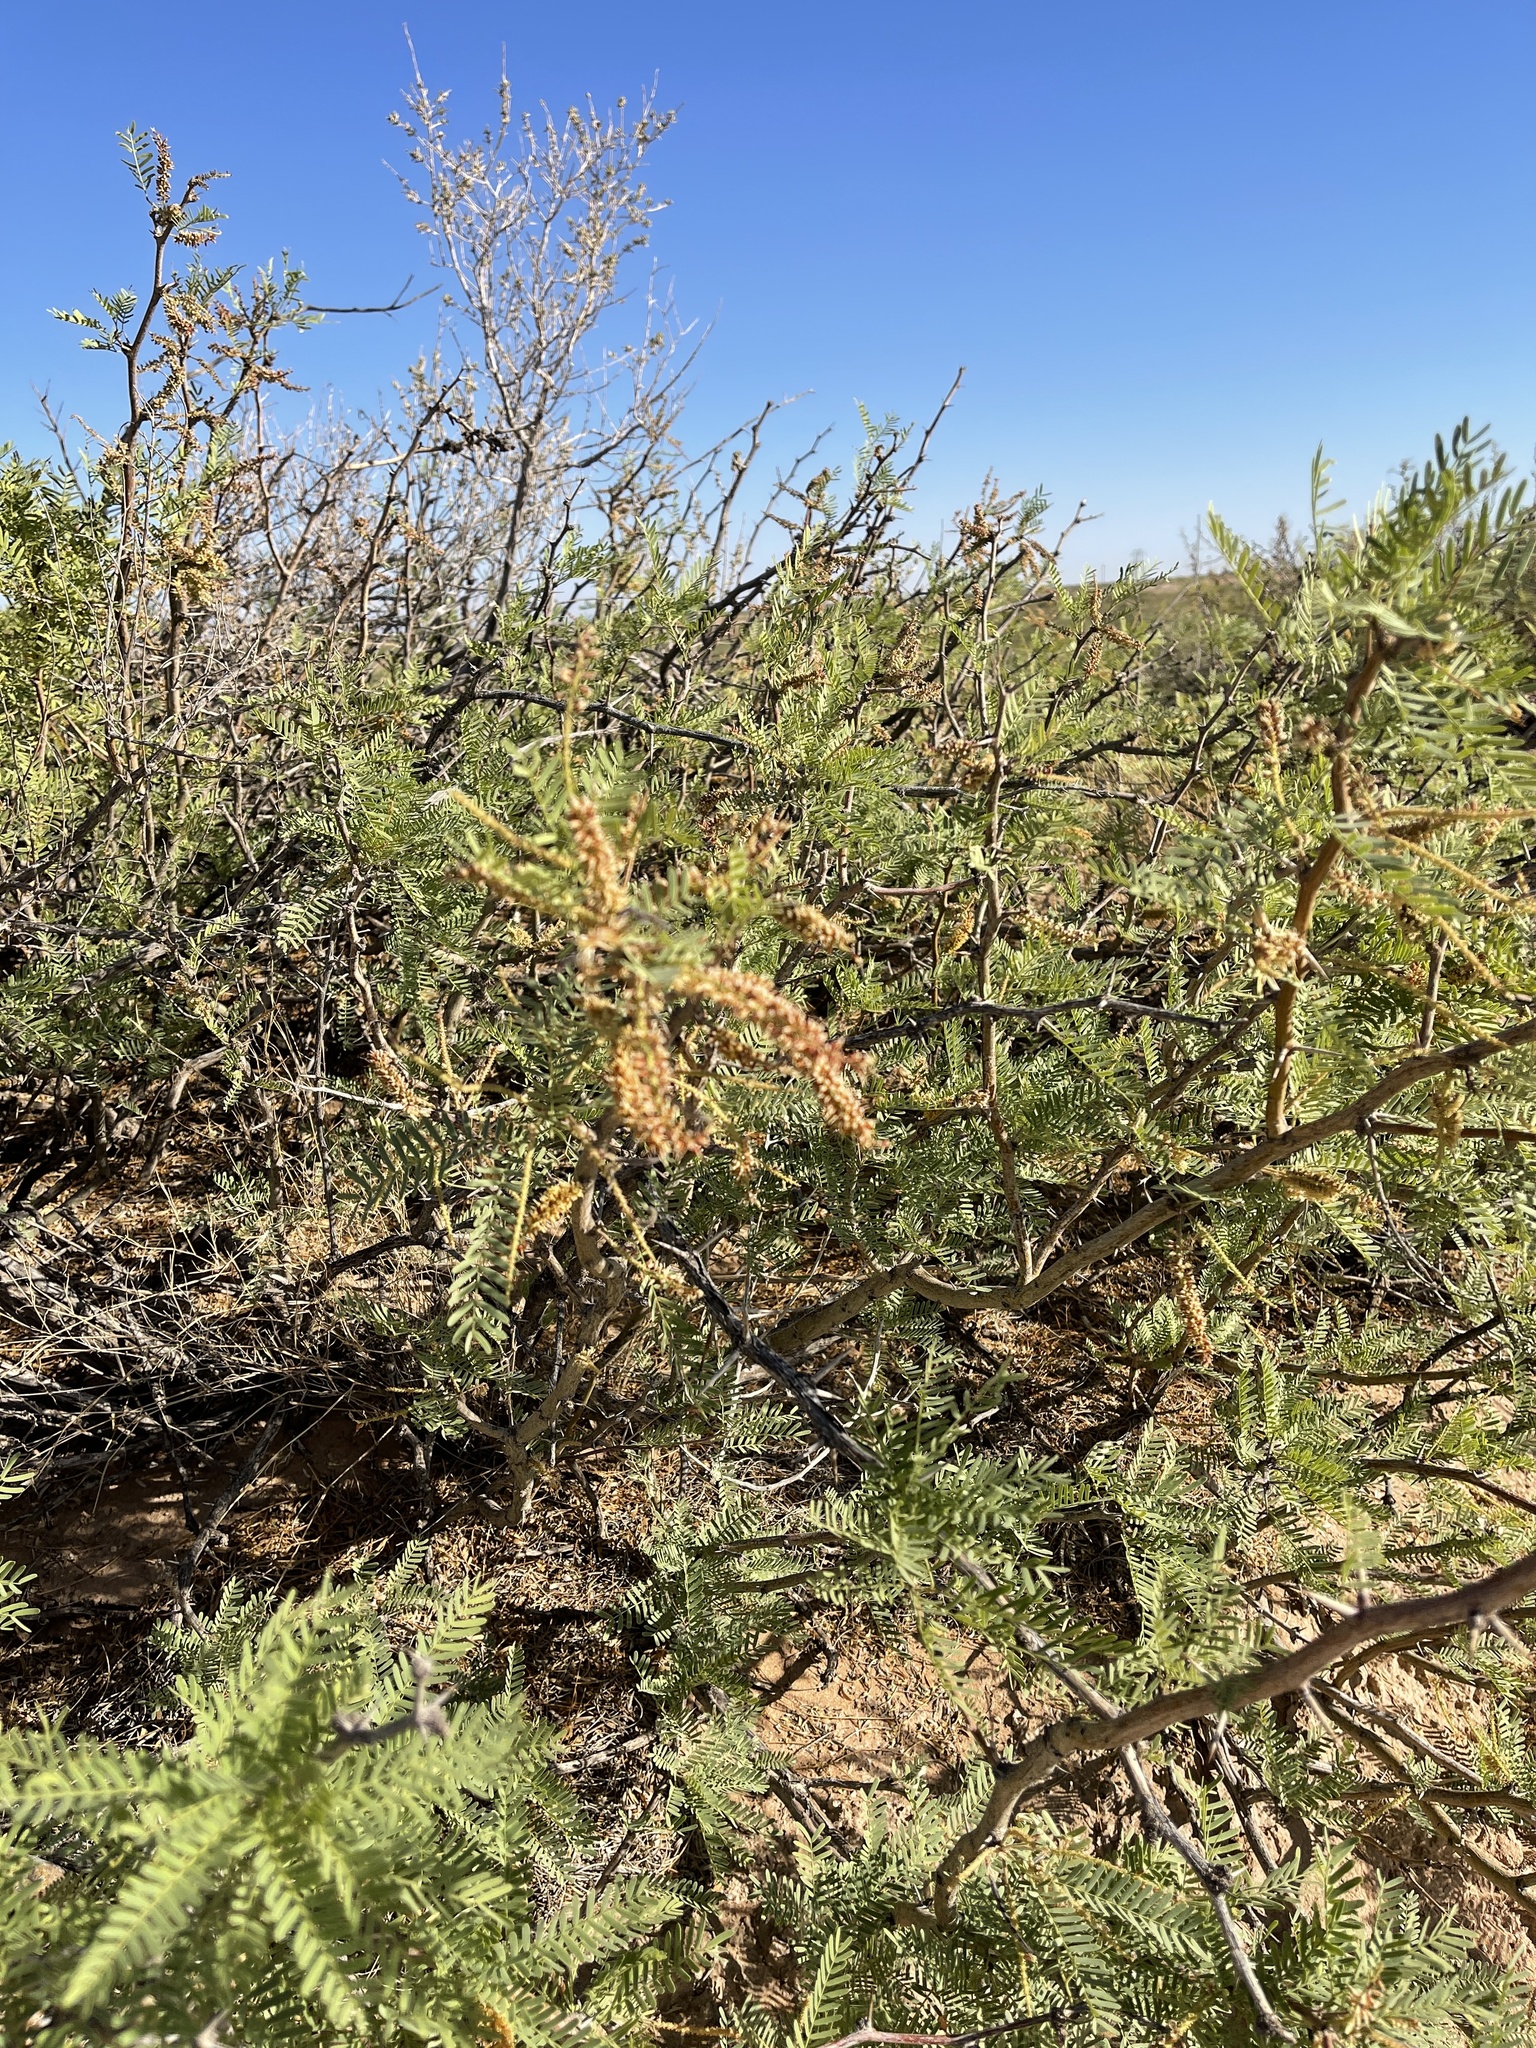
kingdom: Plantae
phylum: Tracheophyta
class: Magnoliopsida
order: Fabales
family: Fabaceae
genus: Prosopis
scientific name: Prosopis glandulosa
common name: Honey mesquite
